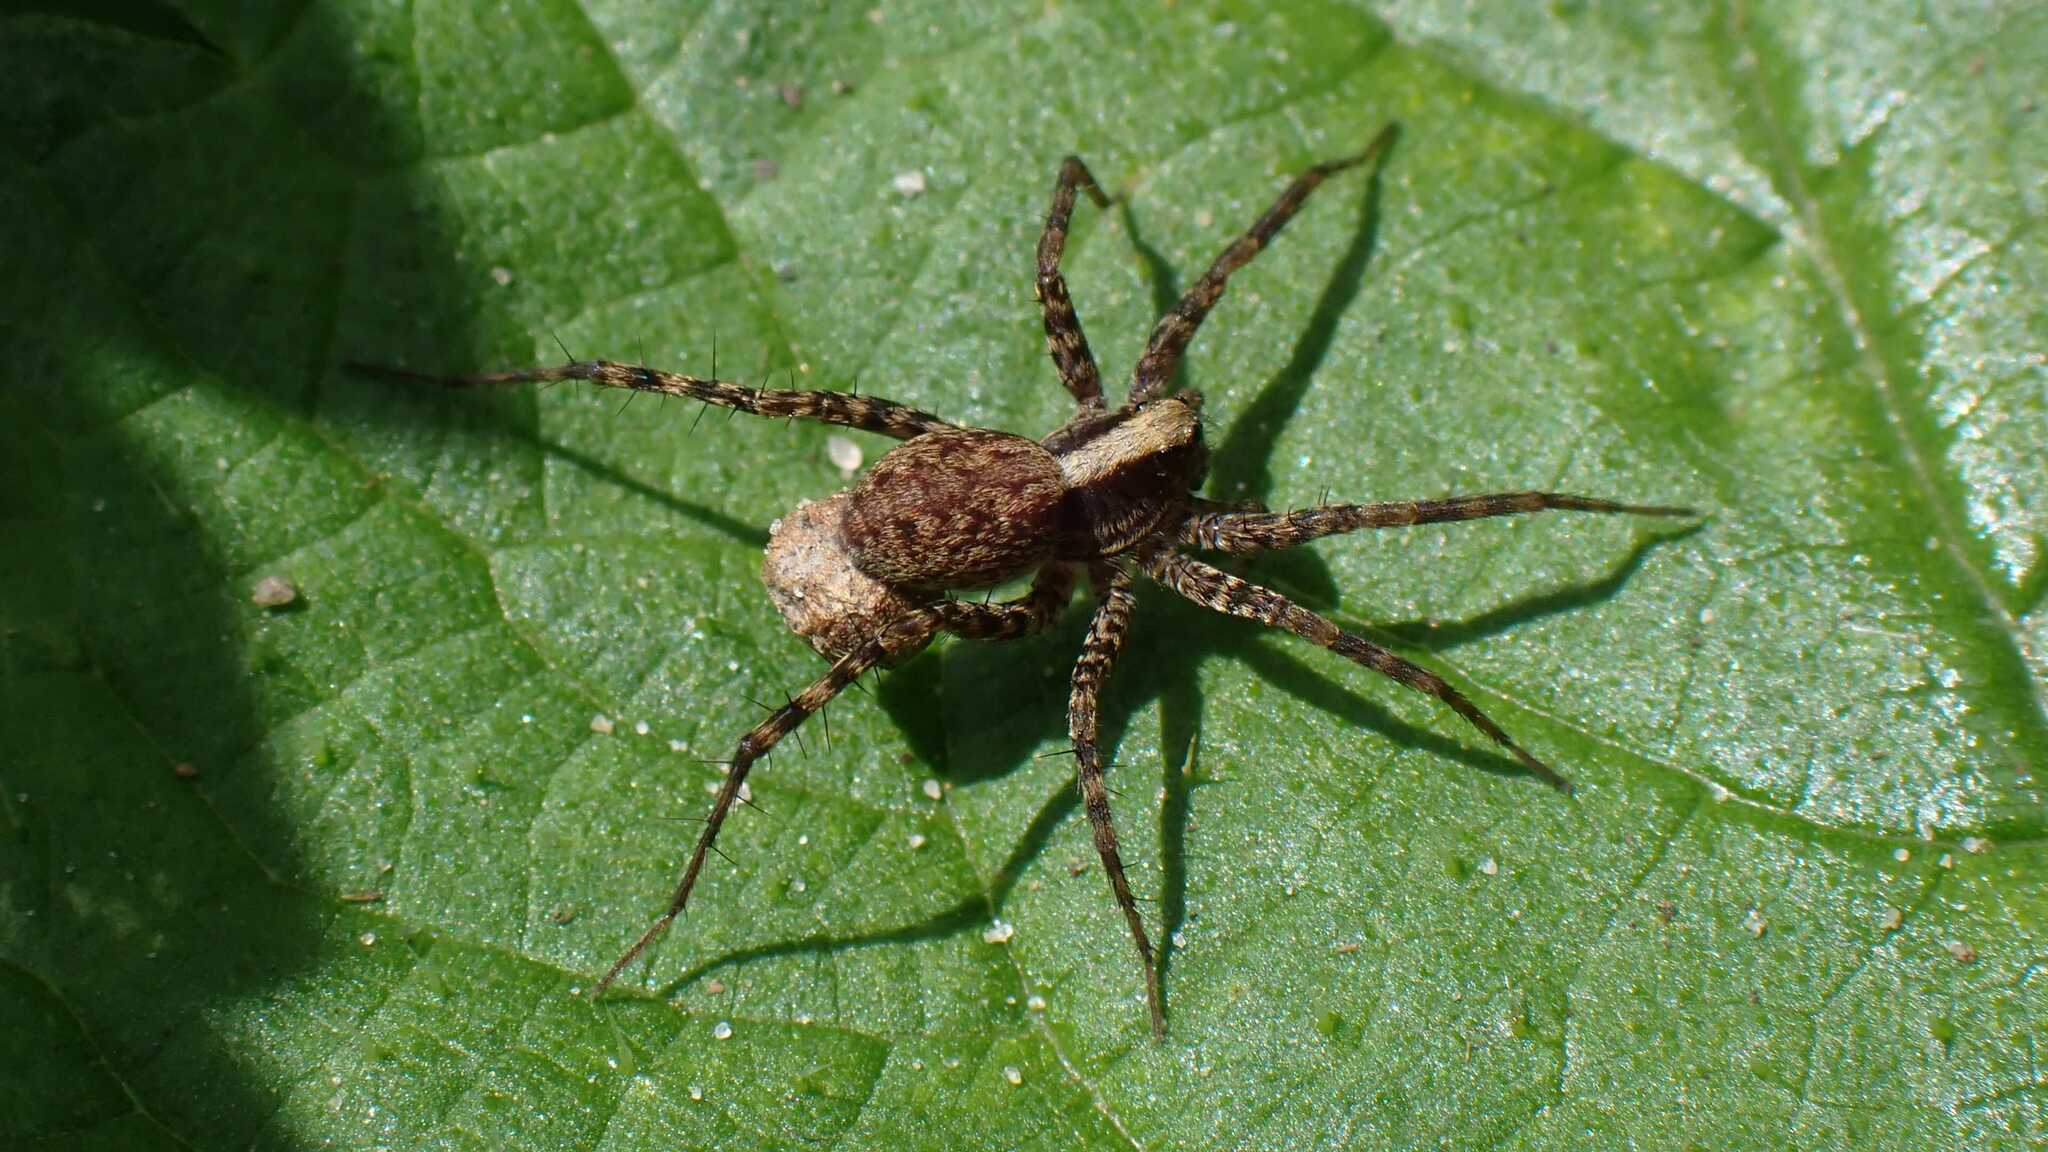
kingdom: Animalia
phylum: Arthropoda
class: Arachnida
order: Araneae
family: Lycosidae
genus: Pardosa
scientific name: Pardosa
